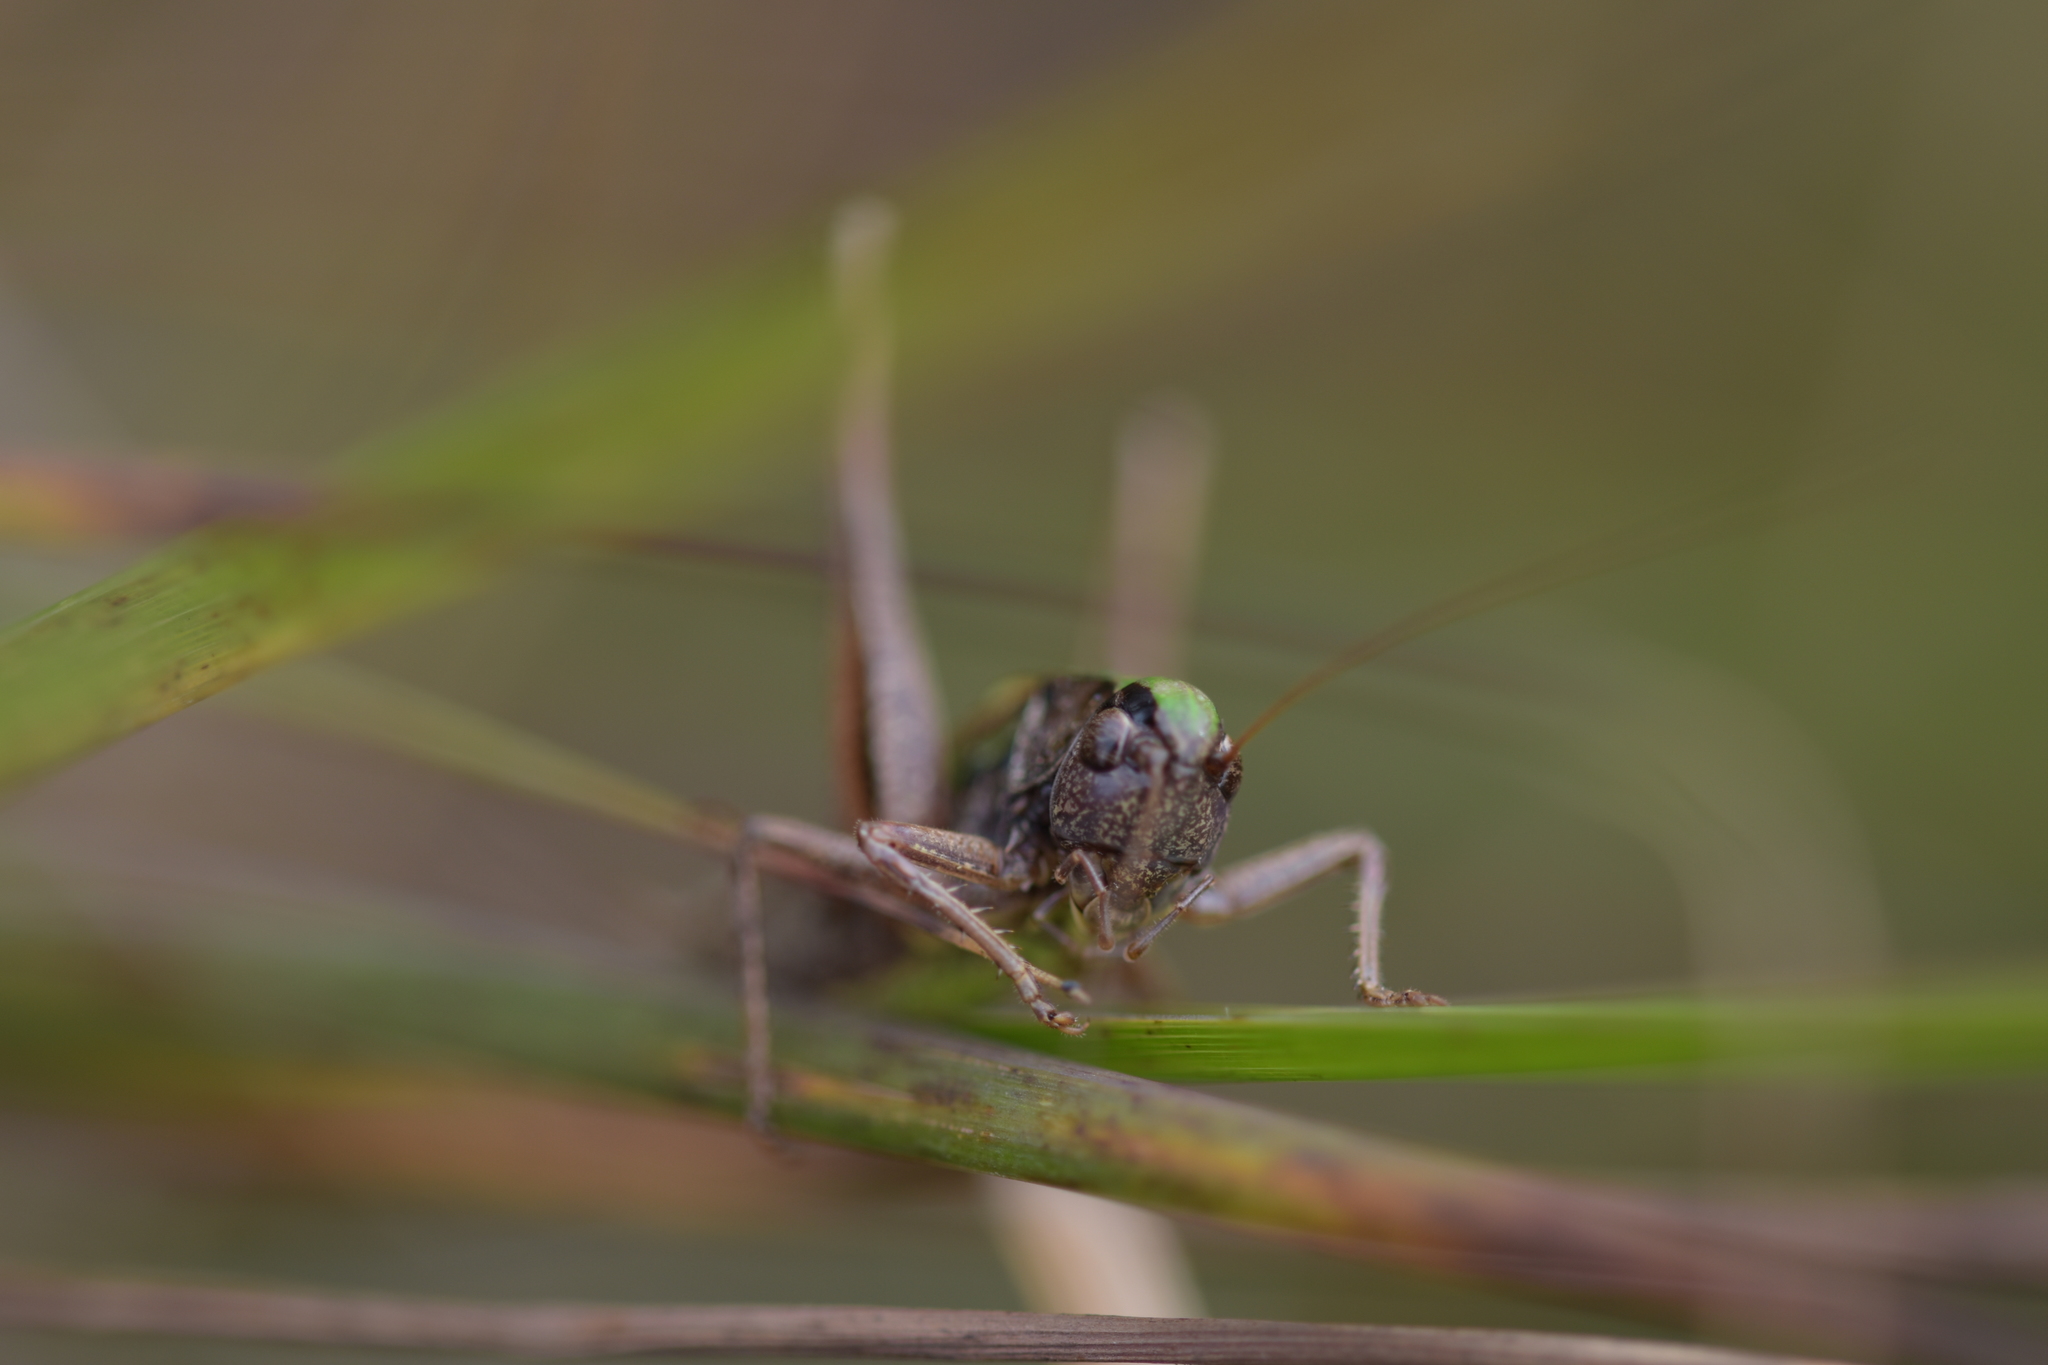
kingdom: Animalia
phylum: Arthropoda
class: Insecta
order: Orthoptera
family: Tettigoniidae
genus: Metrioptera
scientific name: Metrioptera brachyptera
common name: Bog bush-cricket
